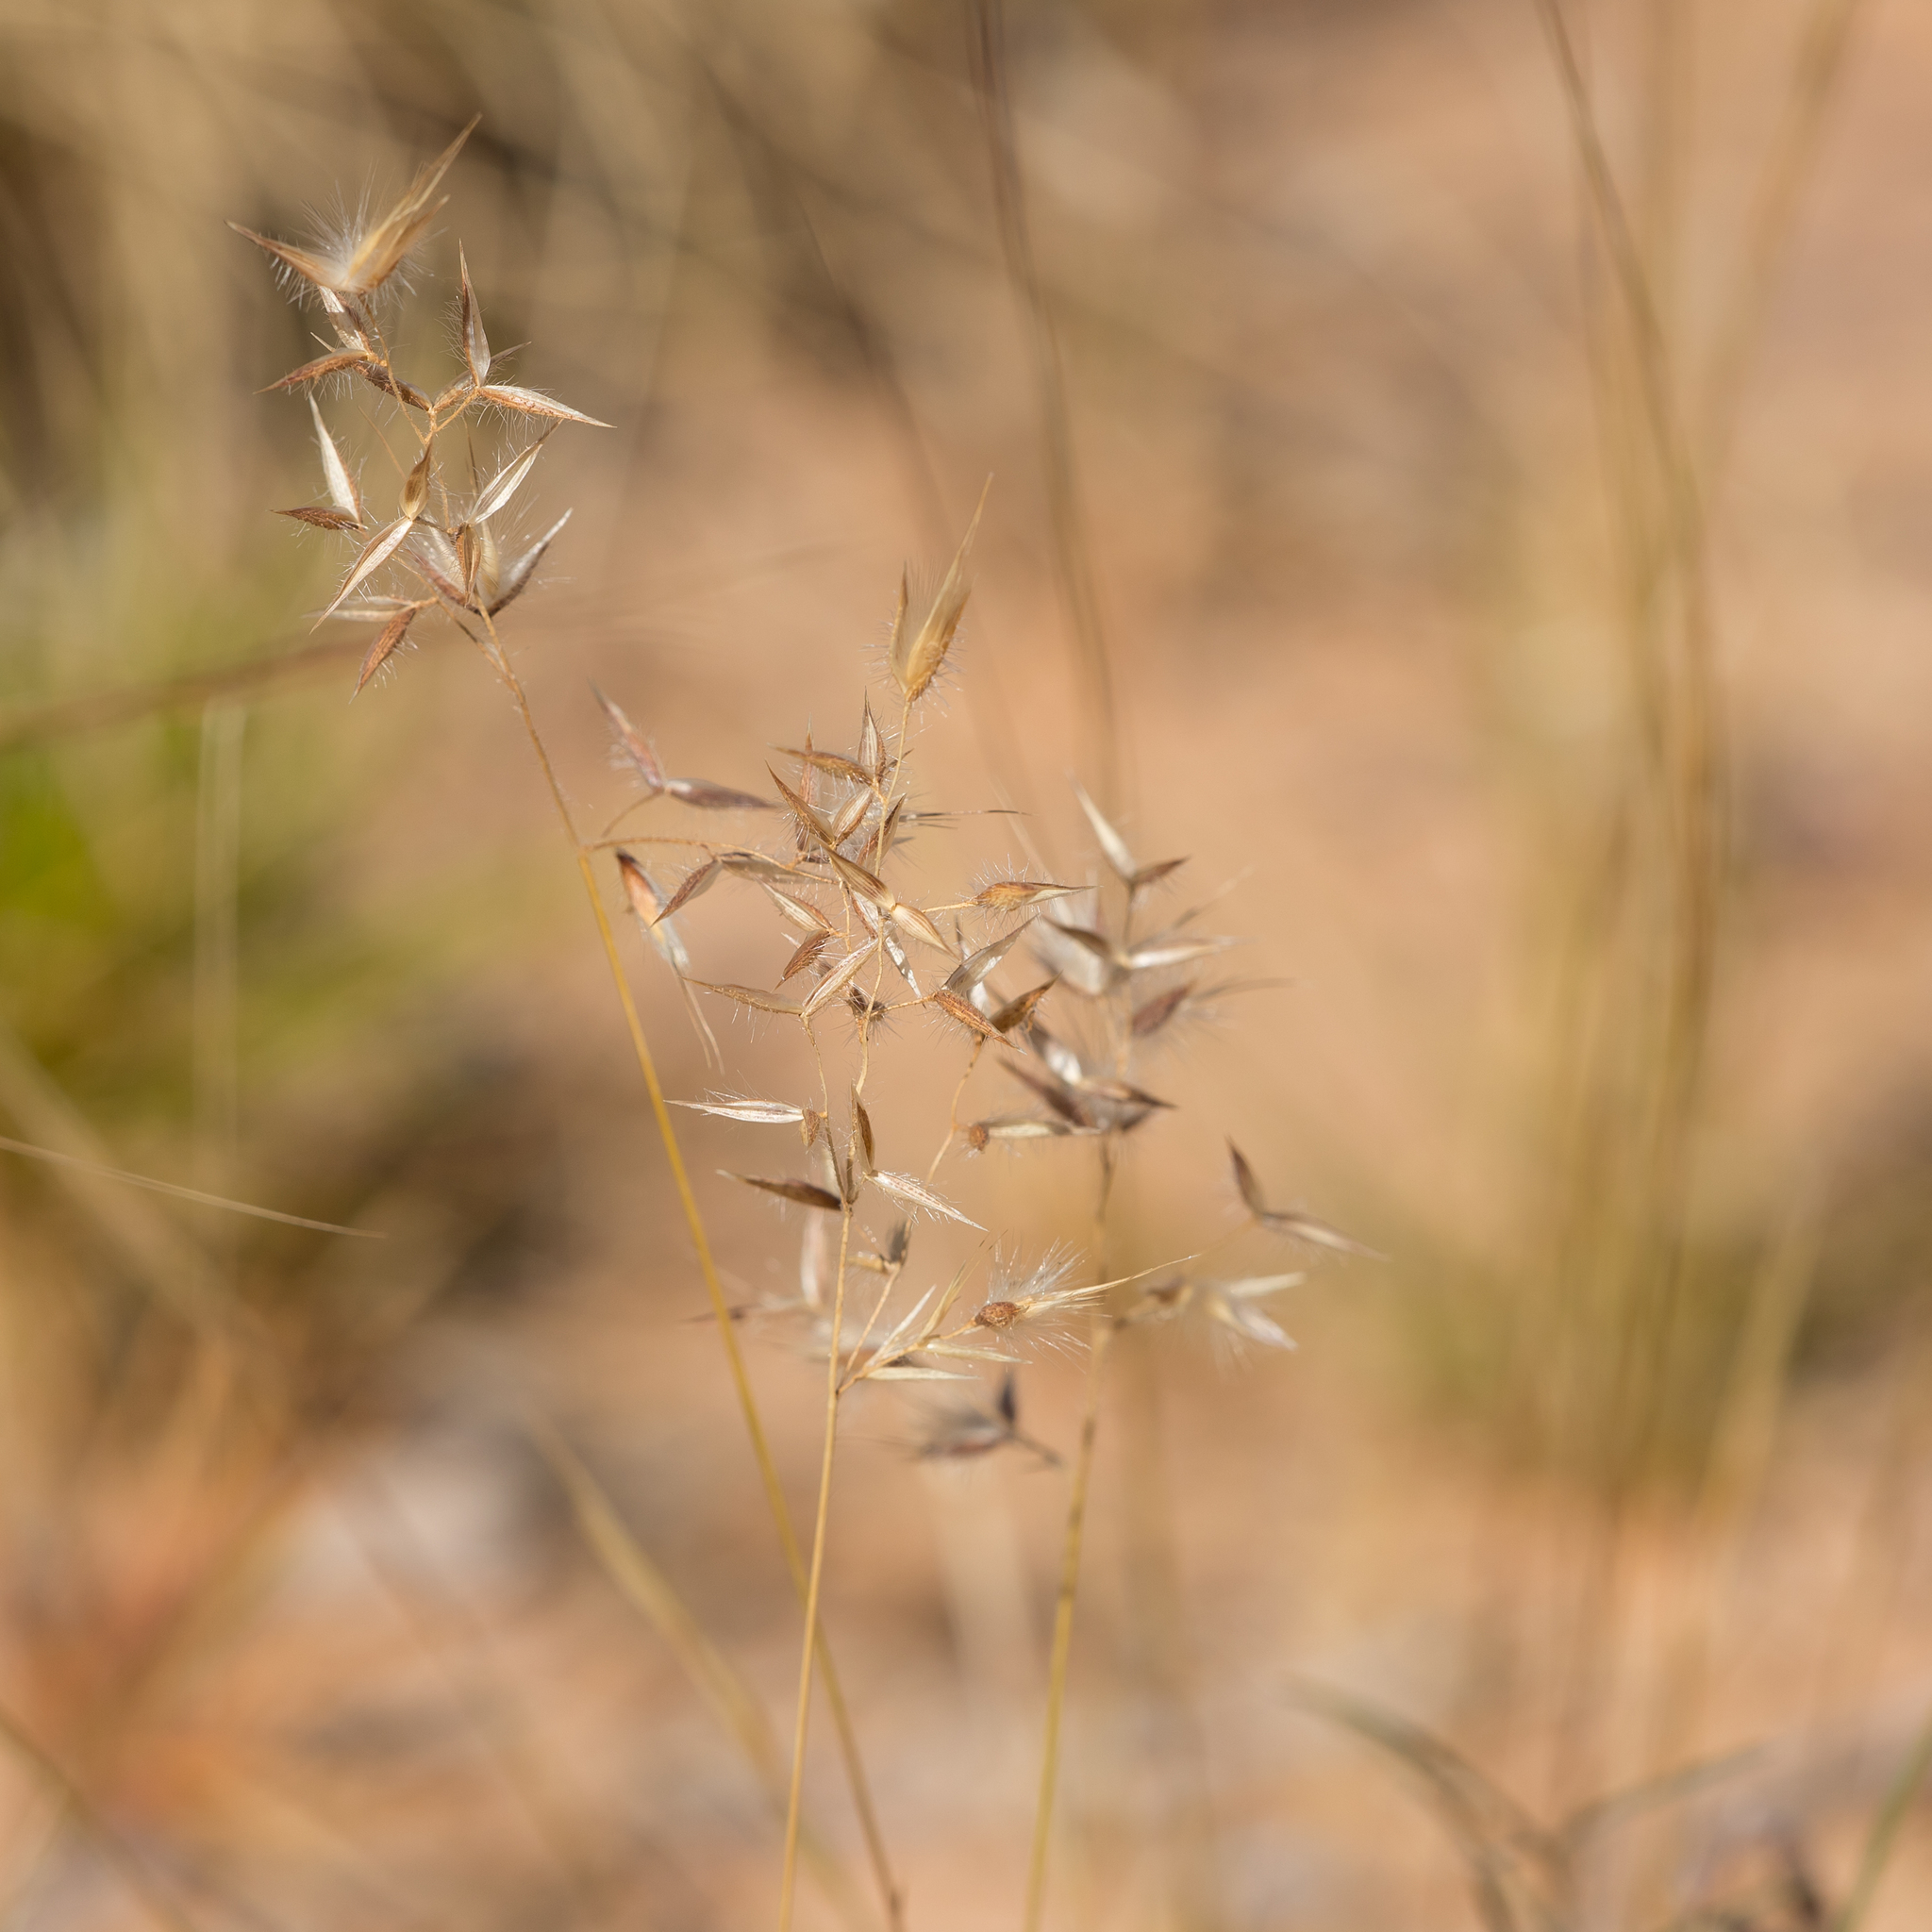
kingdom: Plantae
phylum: Tracheophyta
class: Liliopsida
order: Poales
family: Poaceae
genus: Eriachne
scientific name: Eriachne aristidea
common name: Three-awn wanderrie grass
